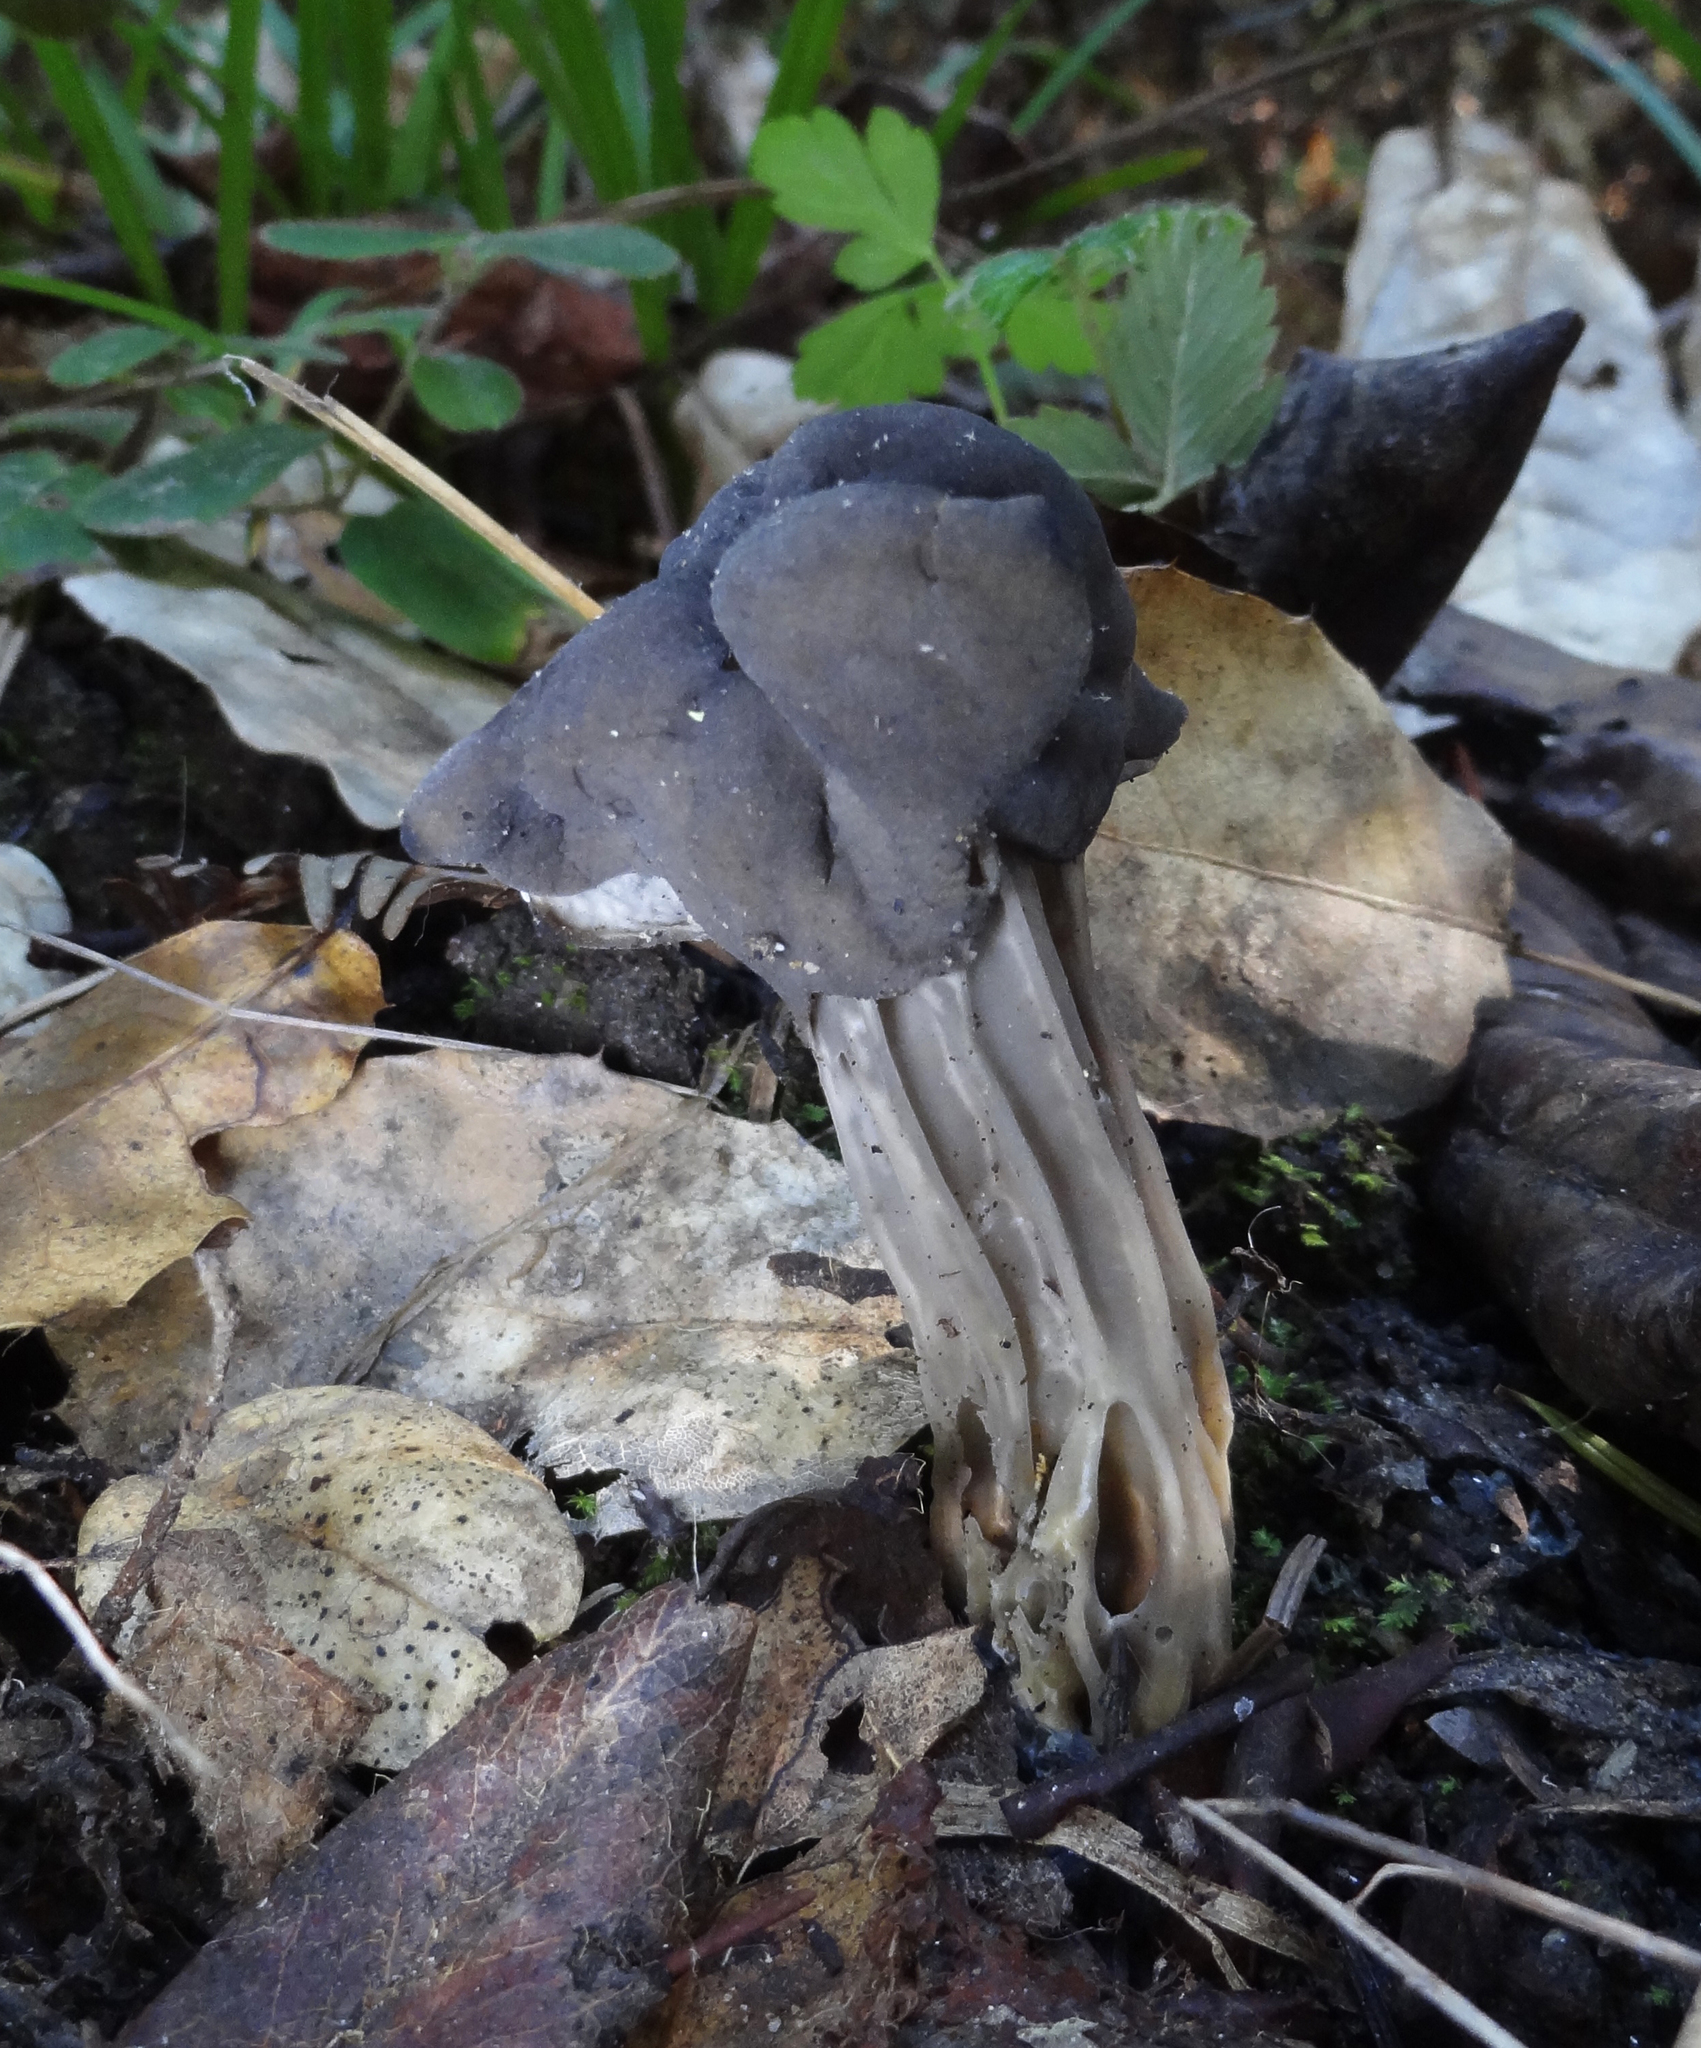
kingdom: Fungi
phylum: Ascomycota
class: Pezizomycetes
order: Pezizales
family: Helvellaceae
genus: Helvella
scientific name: Helvella dryophila
